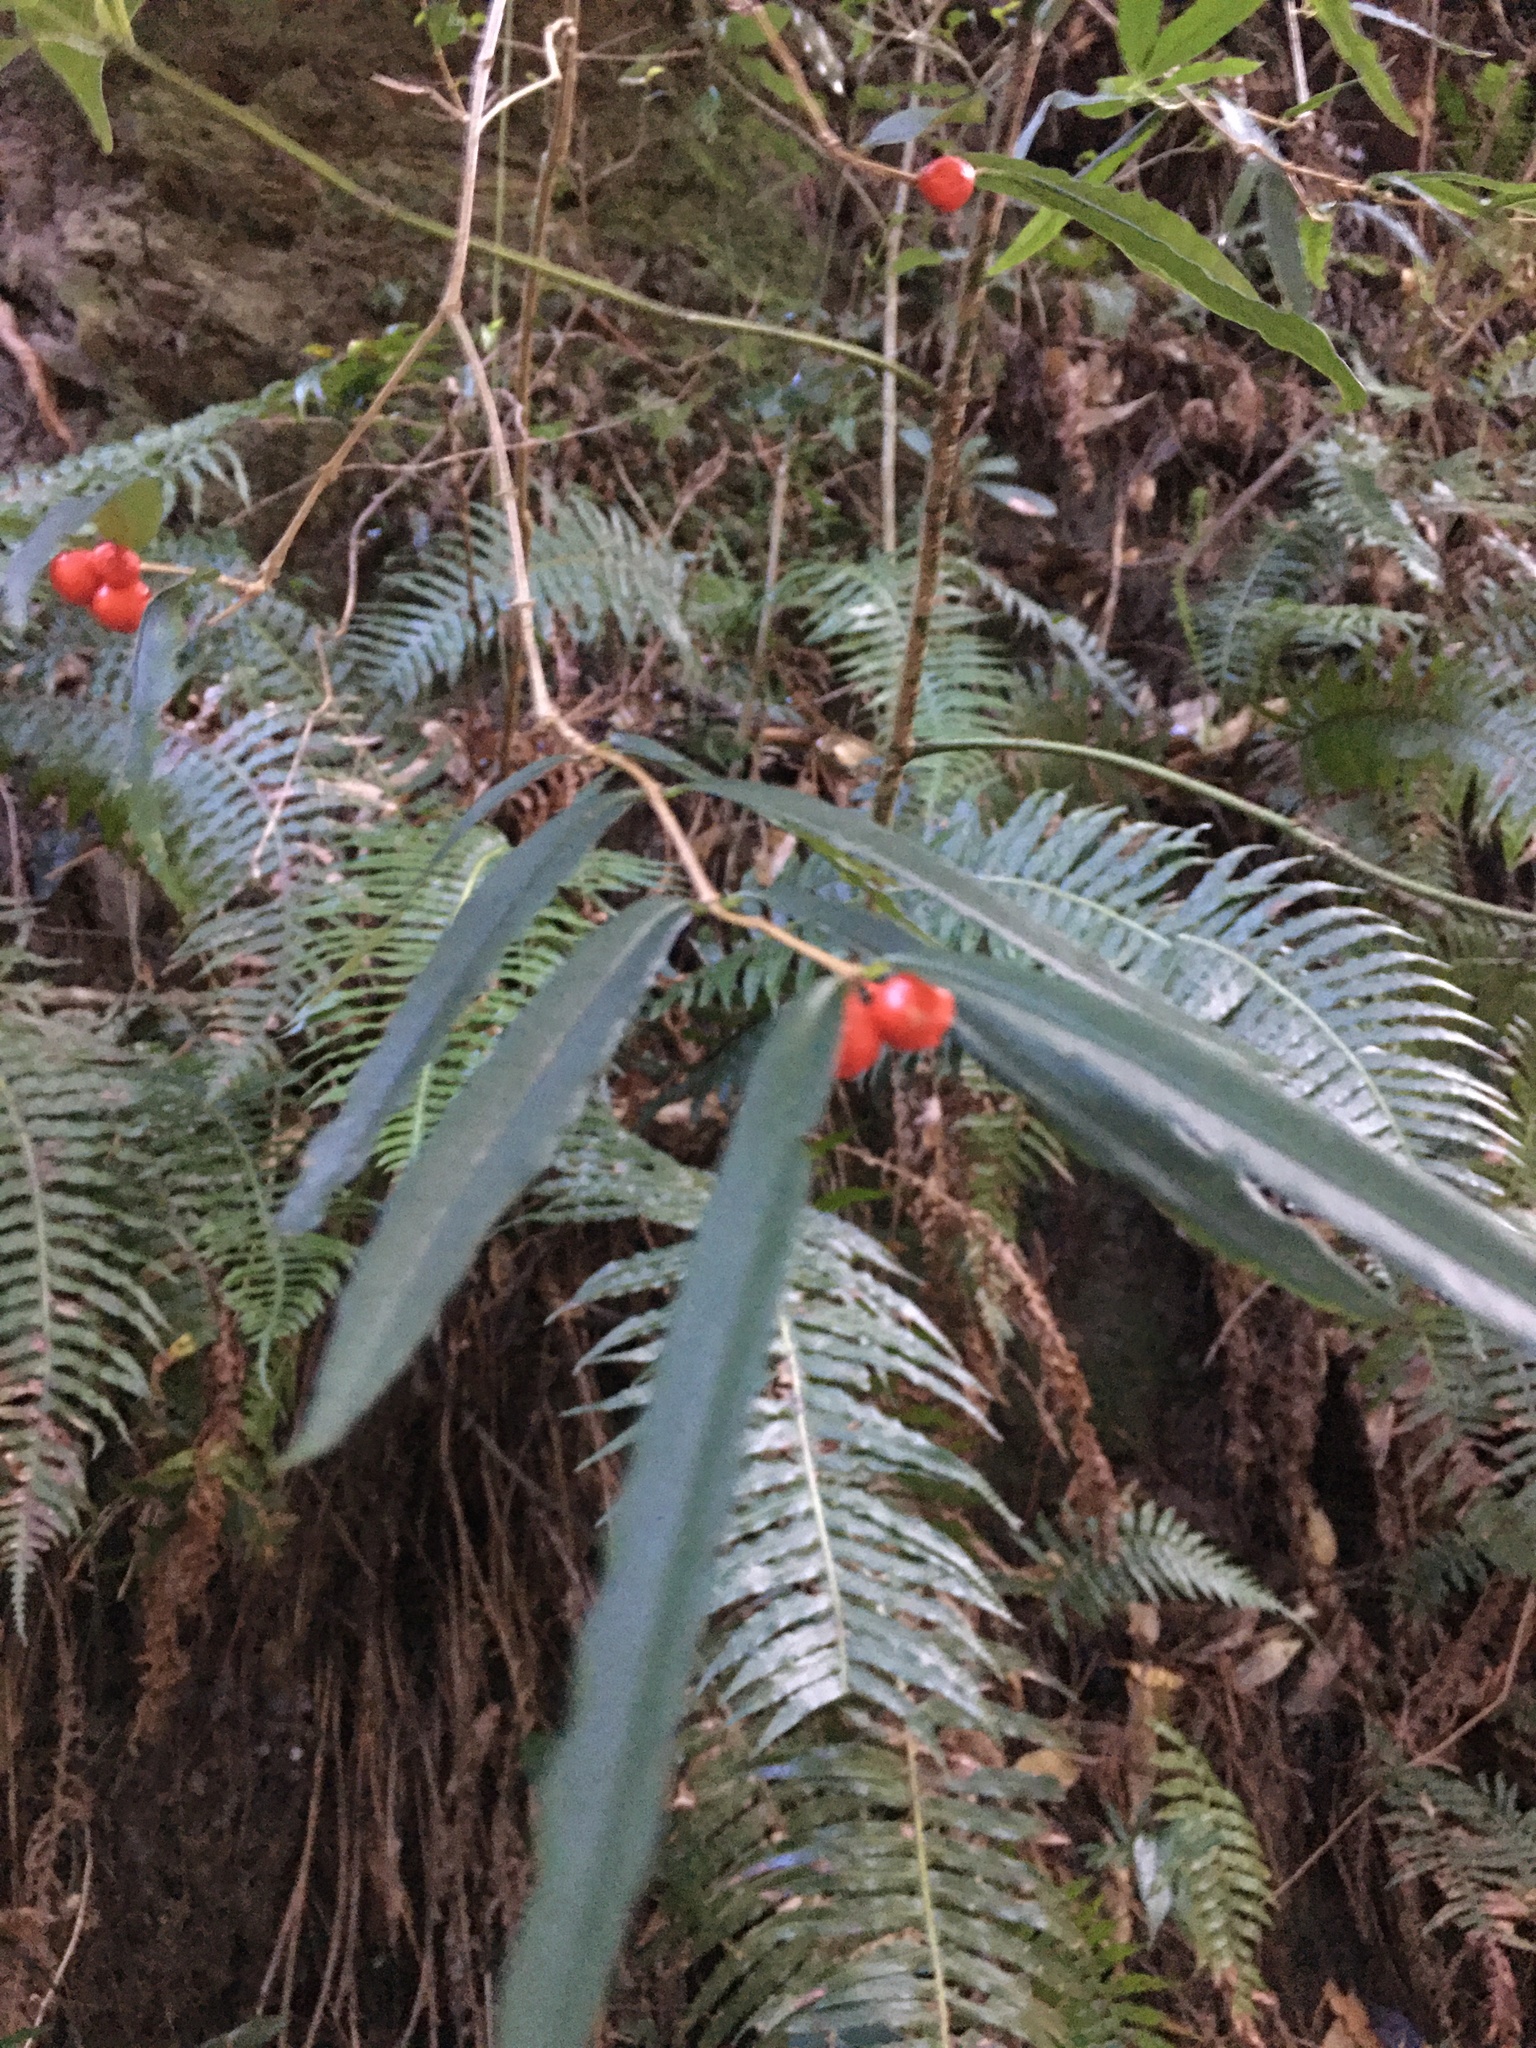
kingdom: Plantae
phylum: Tracheophyta
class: Magnoliopsida
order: Gentianales
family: Rubiaceae
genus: Damnacanthus
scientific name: Damnacanthus angustifolius
